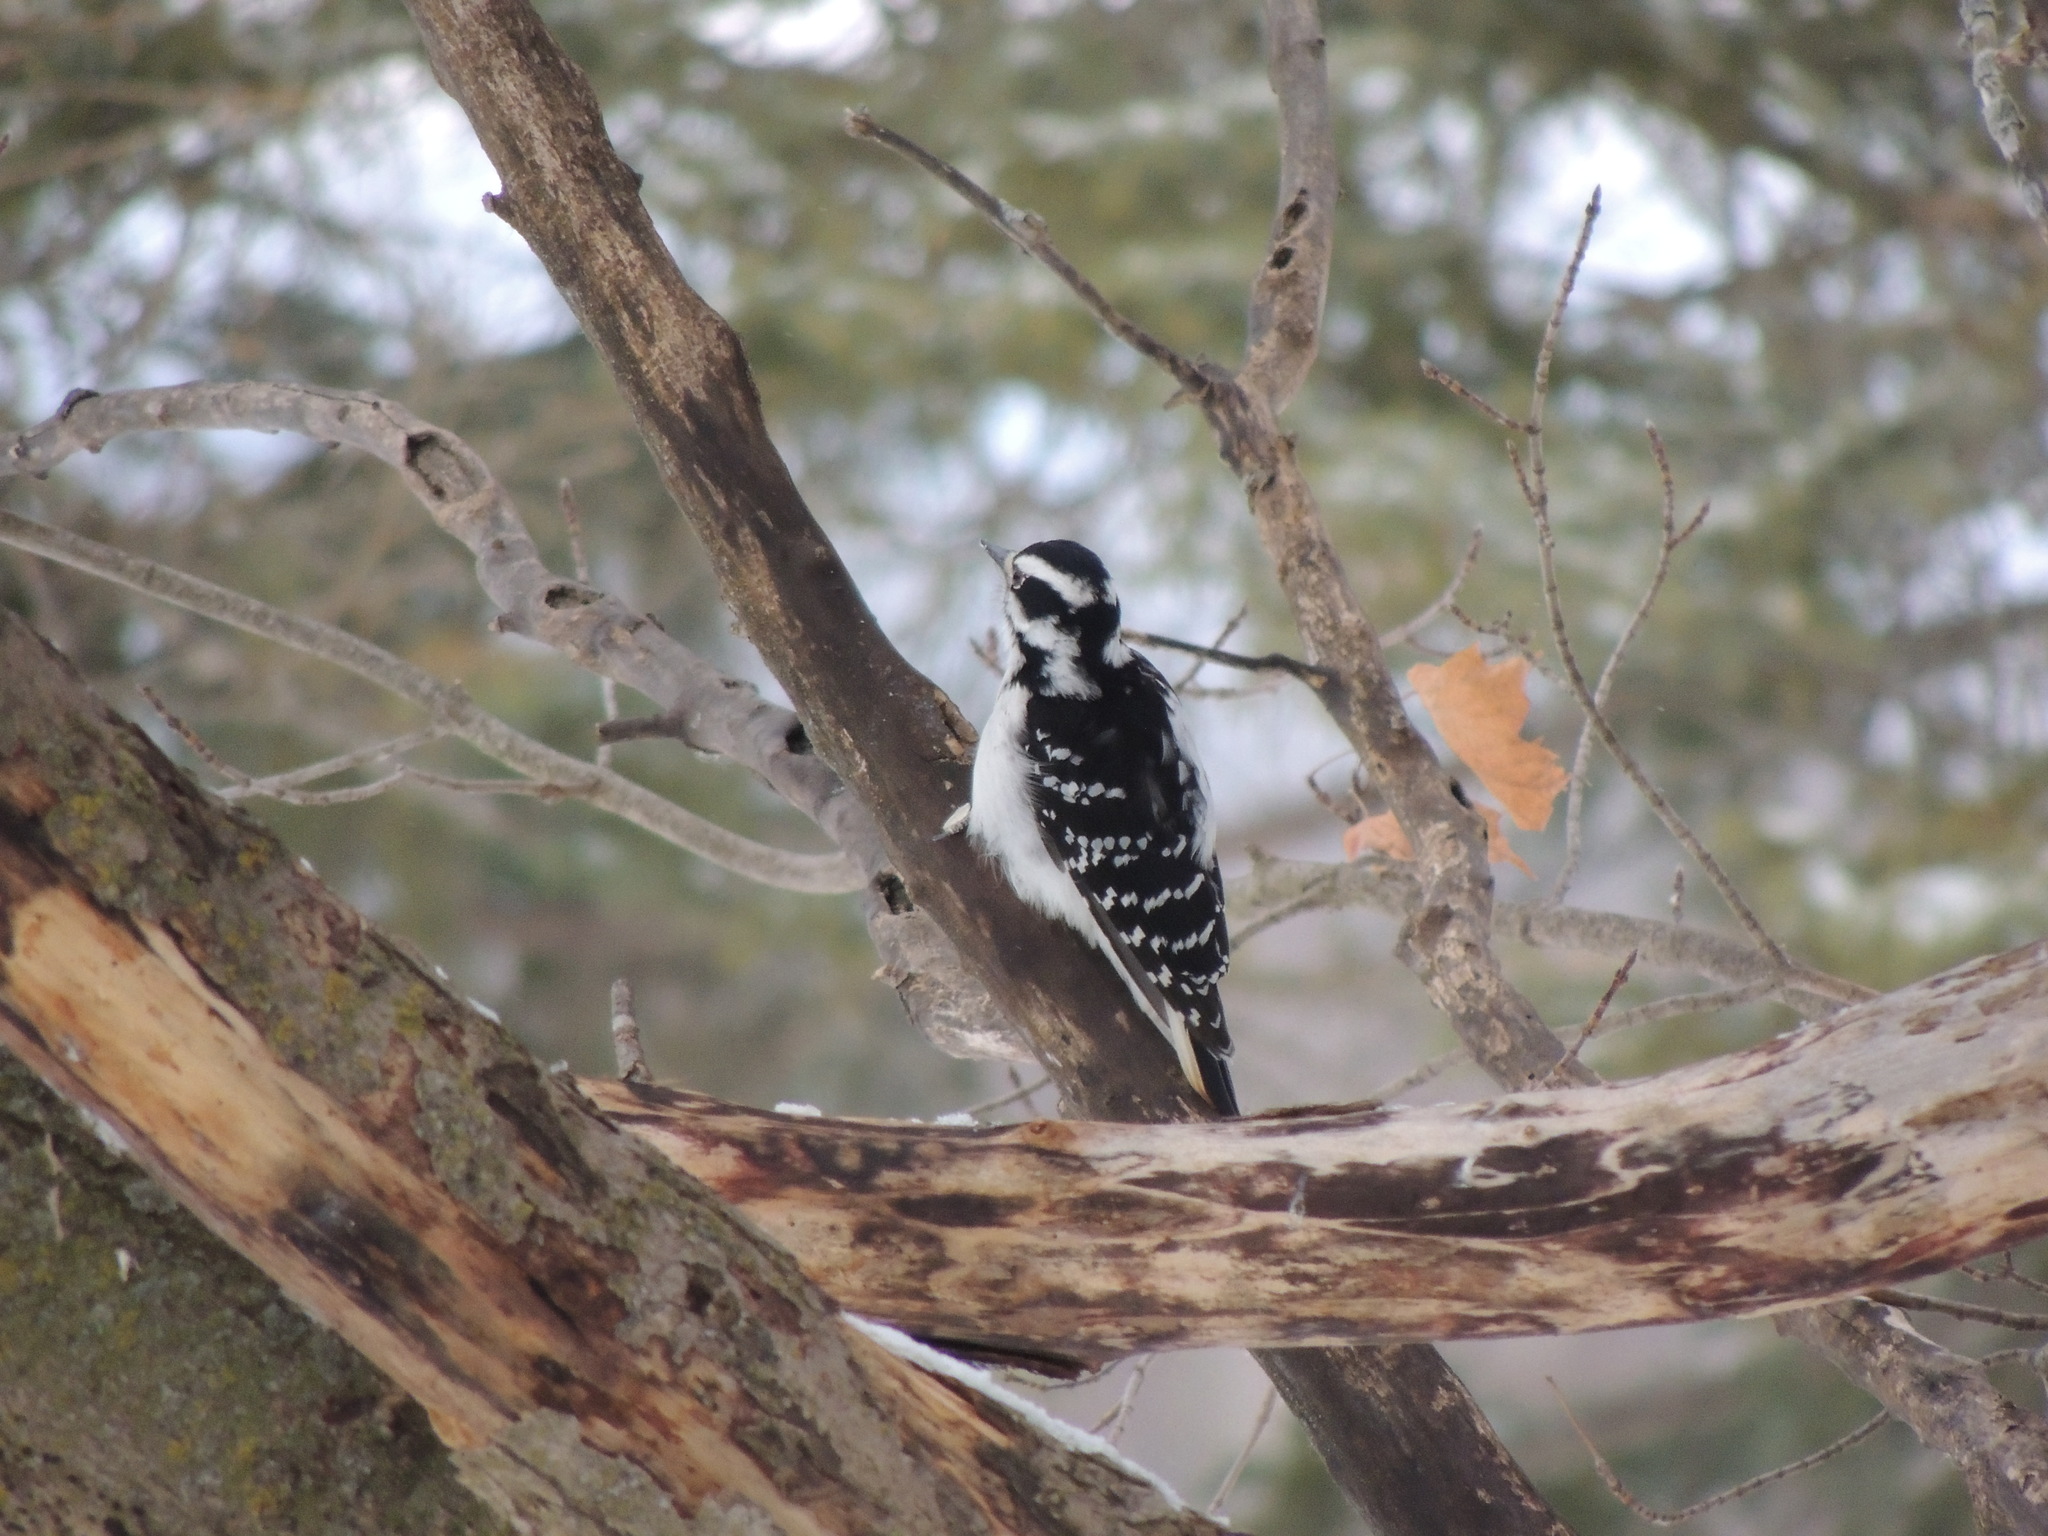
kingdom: Animalia
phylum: Chordata
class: Aves
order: Piciformes
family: Picidae
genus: Leuconotopicus
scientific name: Leuconotopicus villosus
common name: Hairy woodpecker
